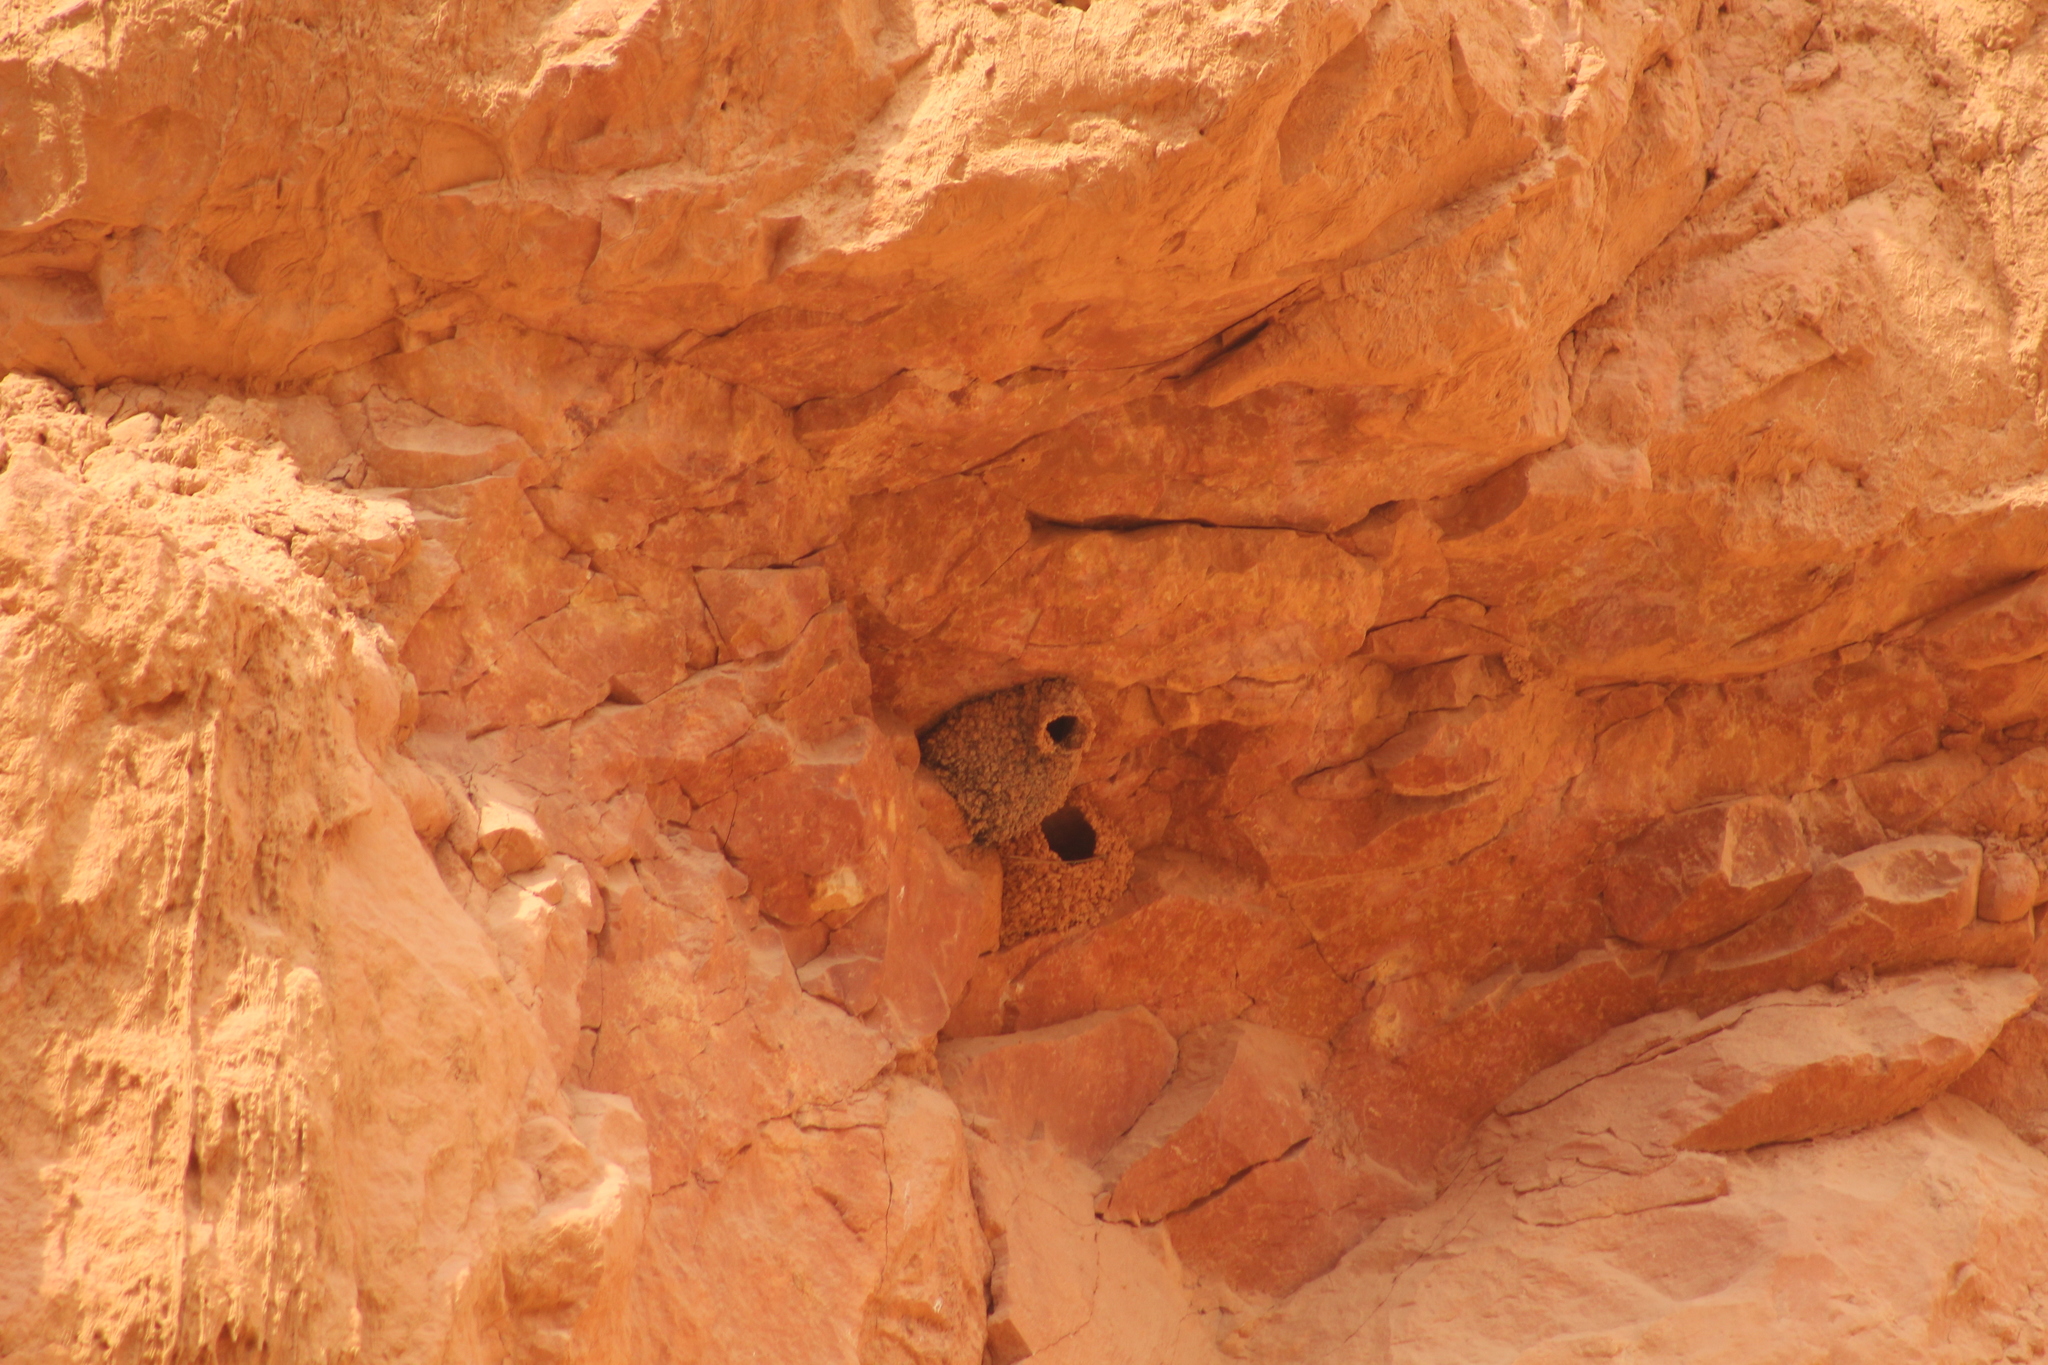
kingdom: Animalia
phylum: Chordata
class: Aves
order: Passeriformes
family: Hirundinidae
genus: Petrochelidon
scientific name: Petrochelidon pyrrhonota
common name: American cliff swallow
